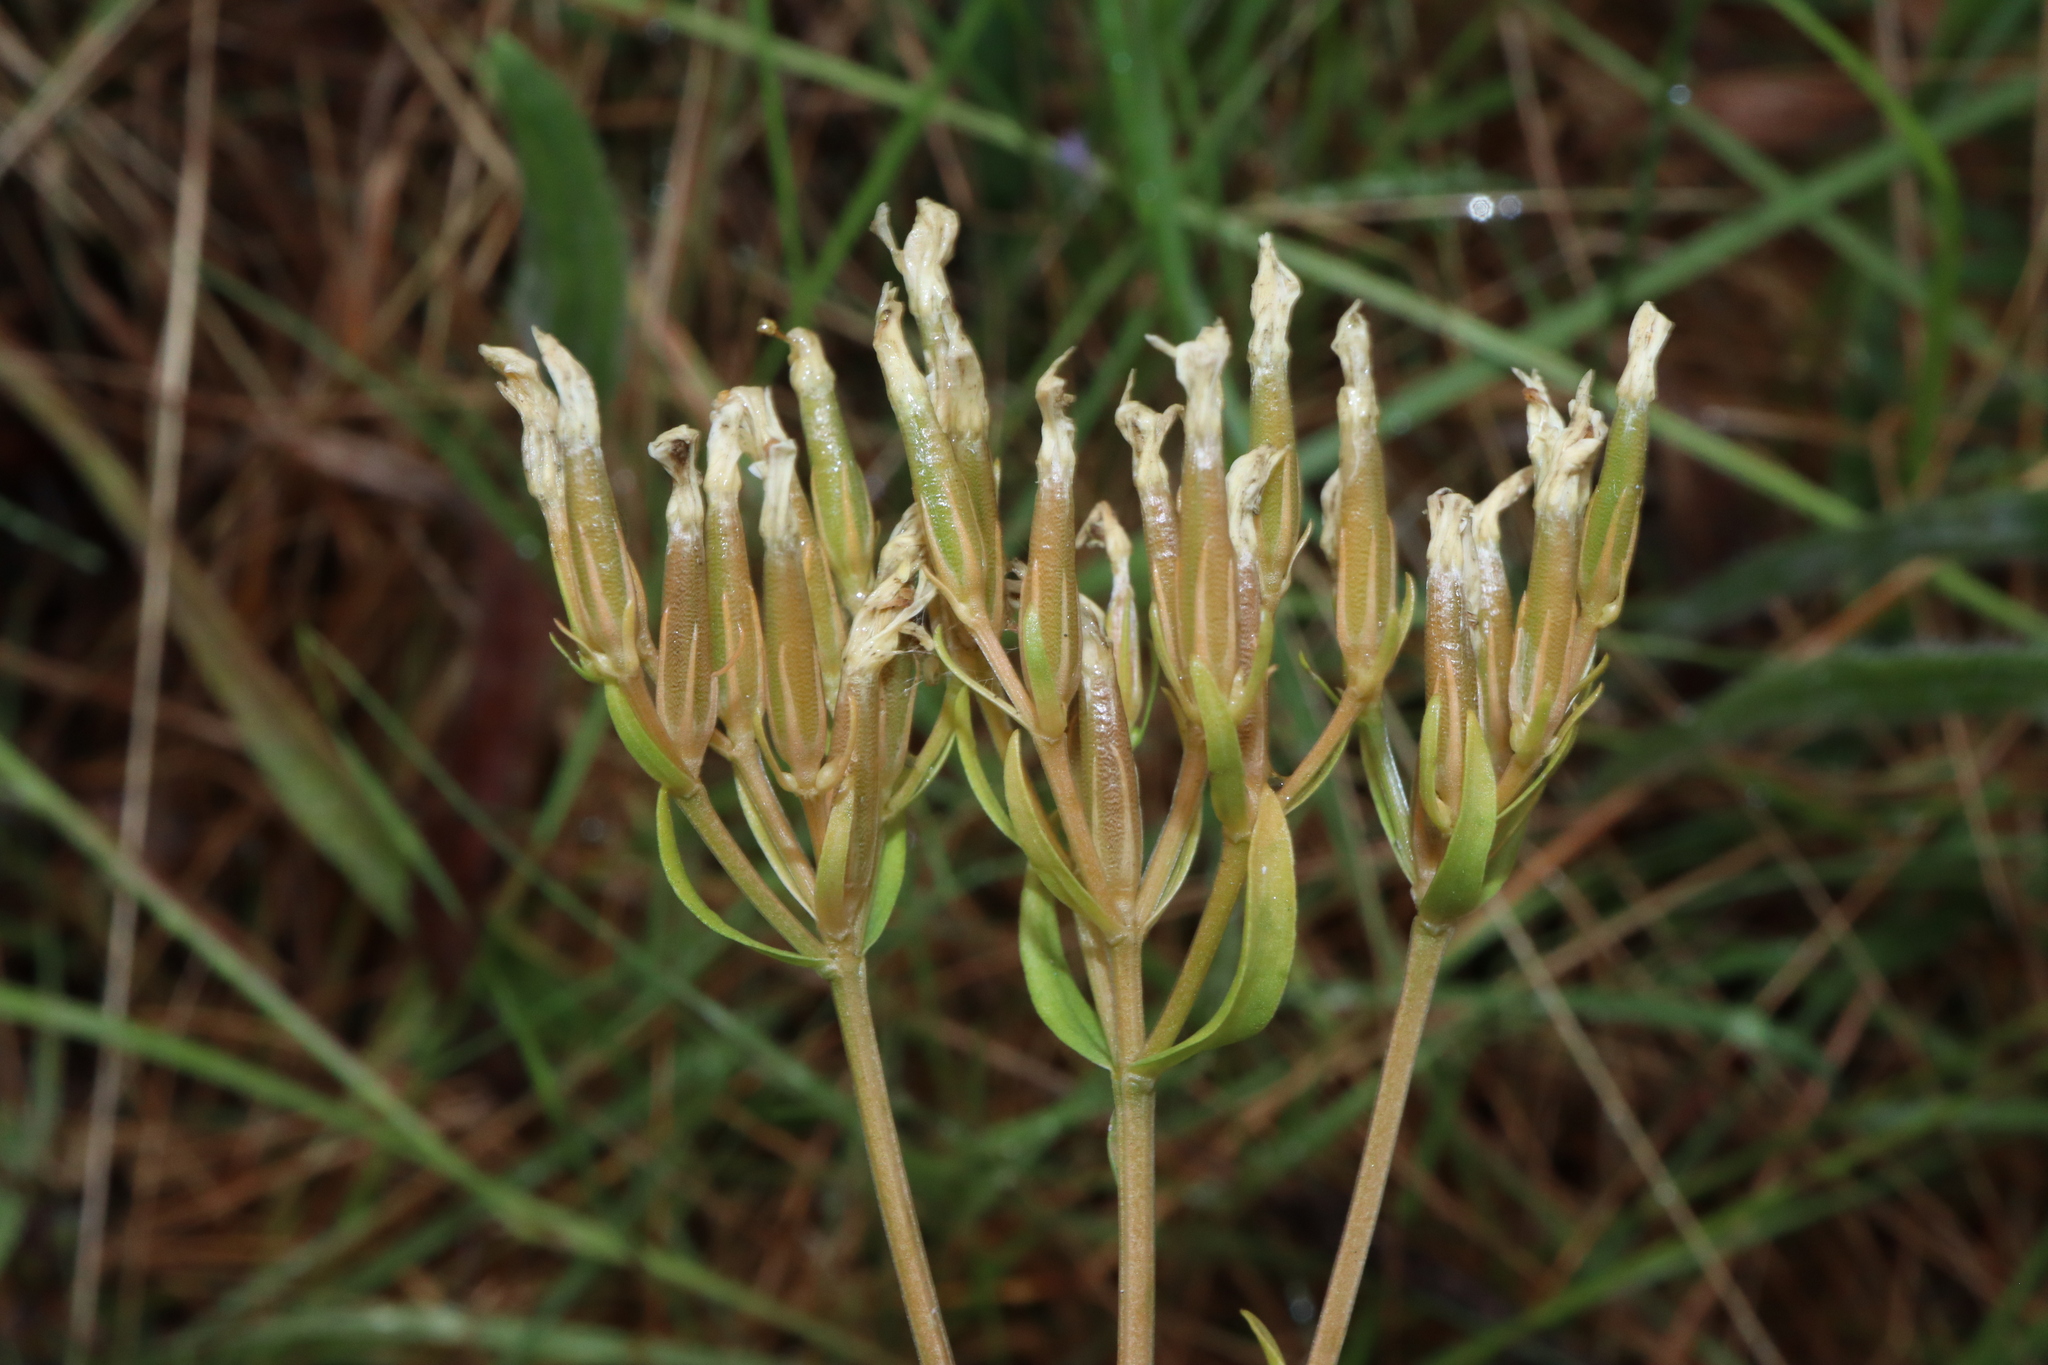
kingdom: Plantae
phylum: Tracheophyta
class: Magnoliopsida
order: Gentianales
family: Gentianaceae
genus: Centaurium
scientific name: Centaurium erythraea
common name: Common centaury
